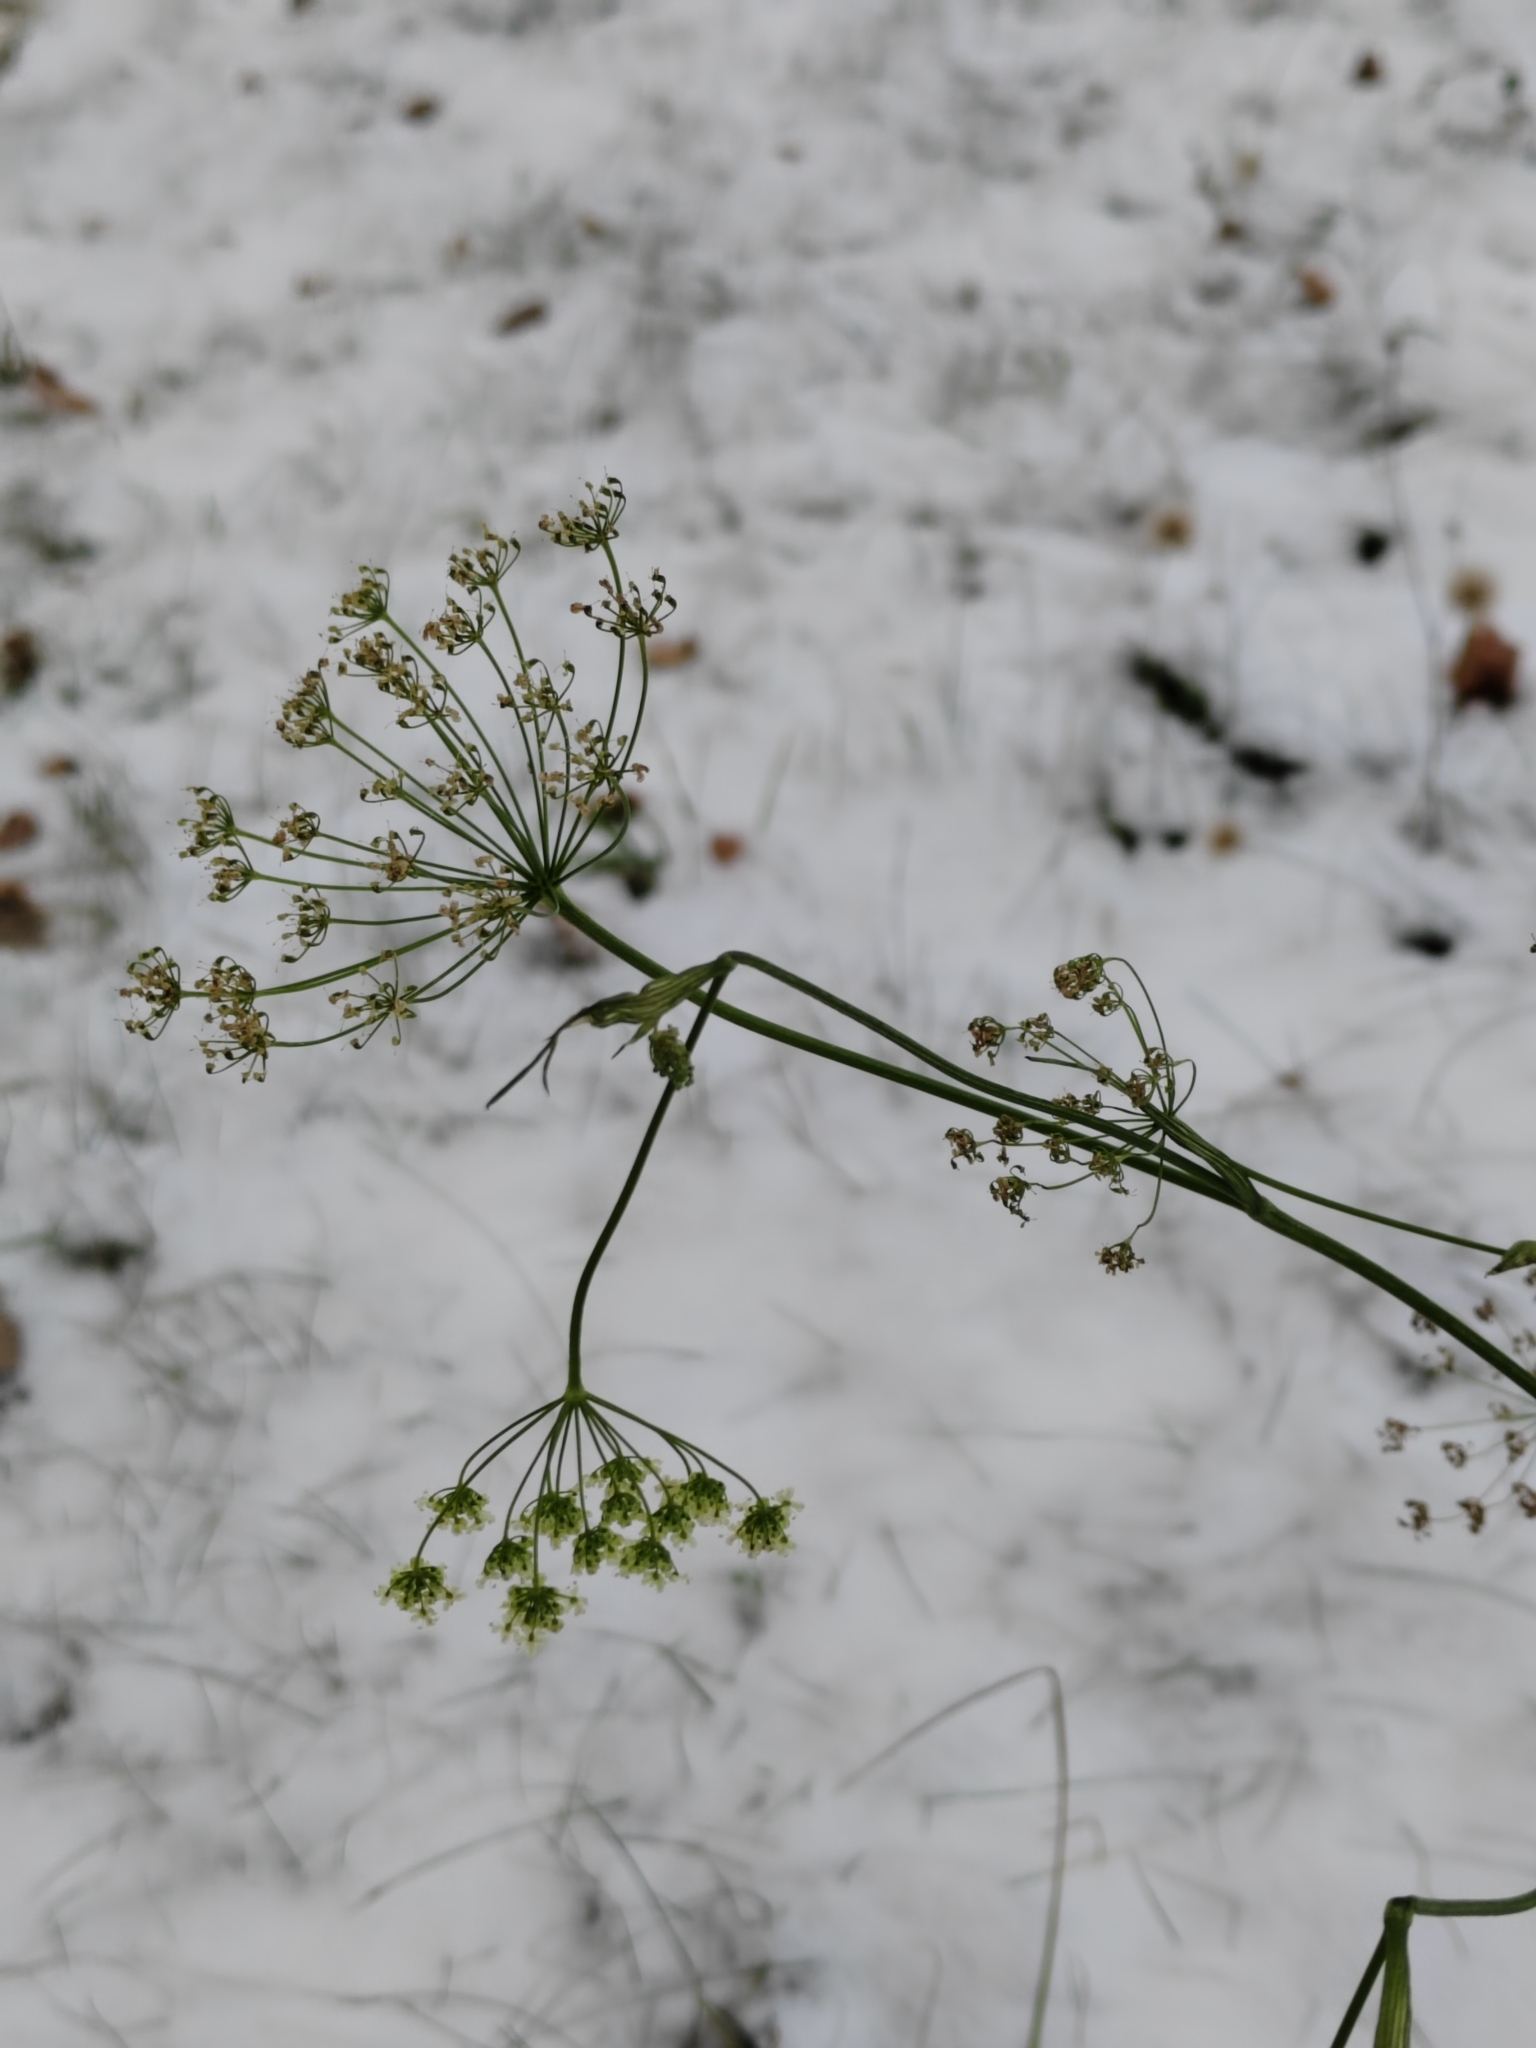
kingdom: Plantae
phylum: Tracheophyta
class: Magnoliopsida
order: Apiales
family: Apiaceae
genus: Pimpinella
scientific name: Pimpinella saxifraga
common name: Burnet-saxifrage
